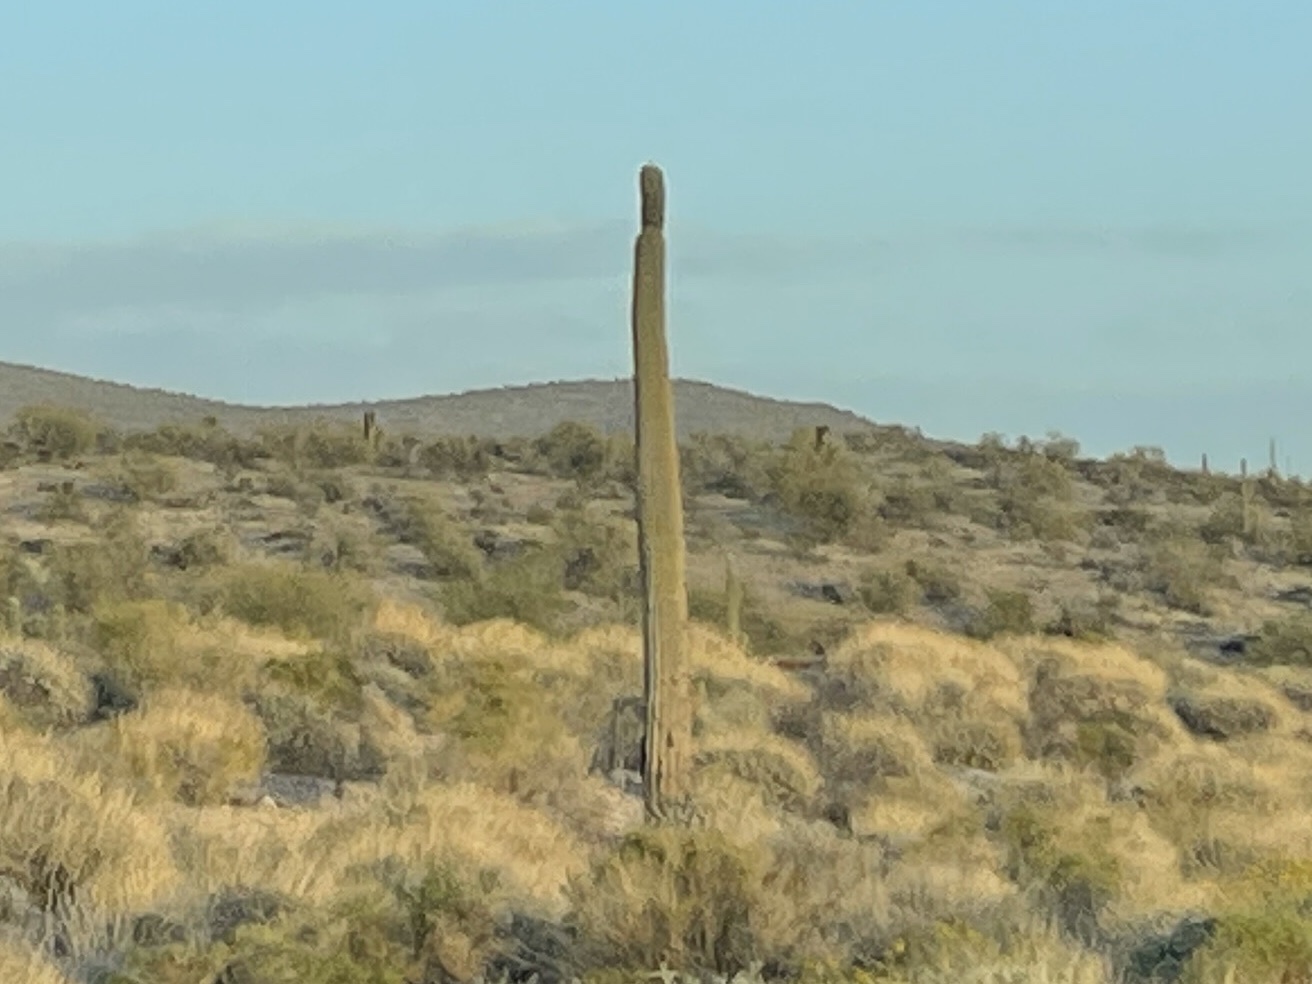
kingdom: Plantae
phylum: Tracheophyta
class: Magnoliopsida
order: Caryophyllales
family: Cactaceae
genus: Carnegiea
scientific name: Carnegiea gigantea
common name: Saguaro
